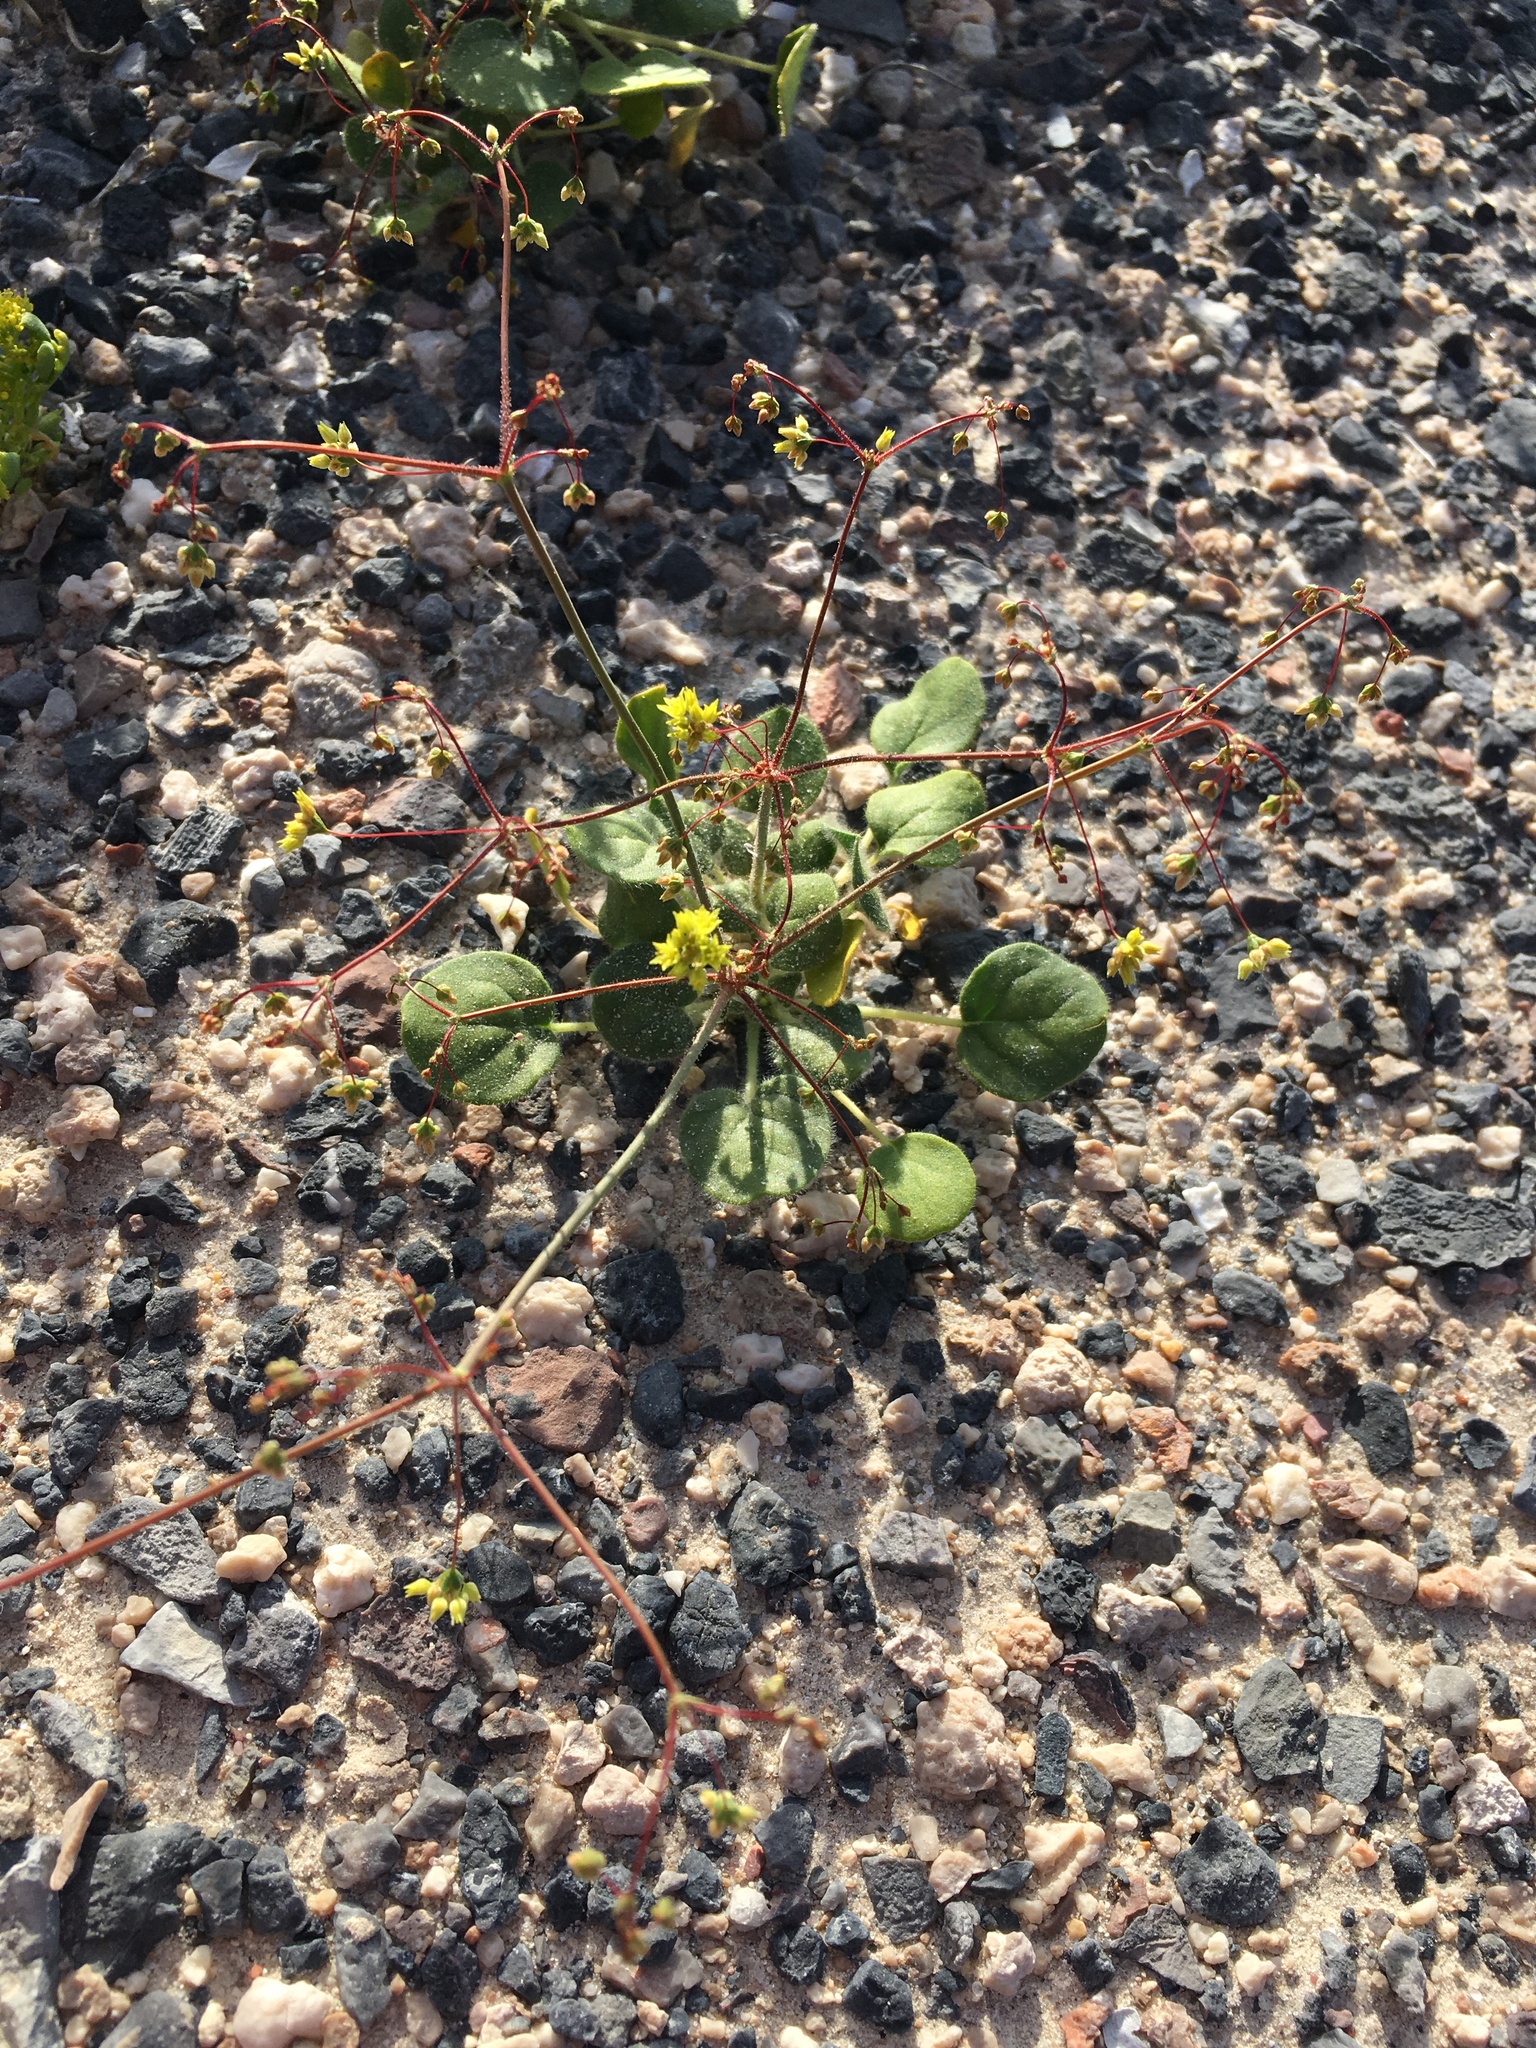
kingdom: Plantae
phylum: Tracheophyta
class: Magnoliopsida
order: Caryophyllales
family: Polygonaceae
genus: Eriogonum
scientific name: Eriogonum contiguum
